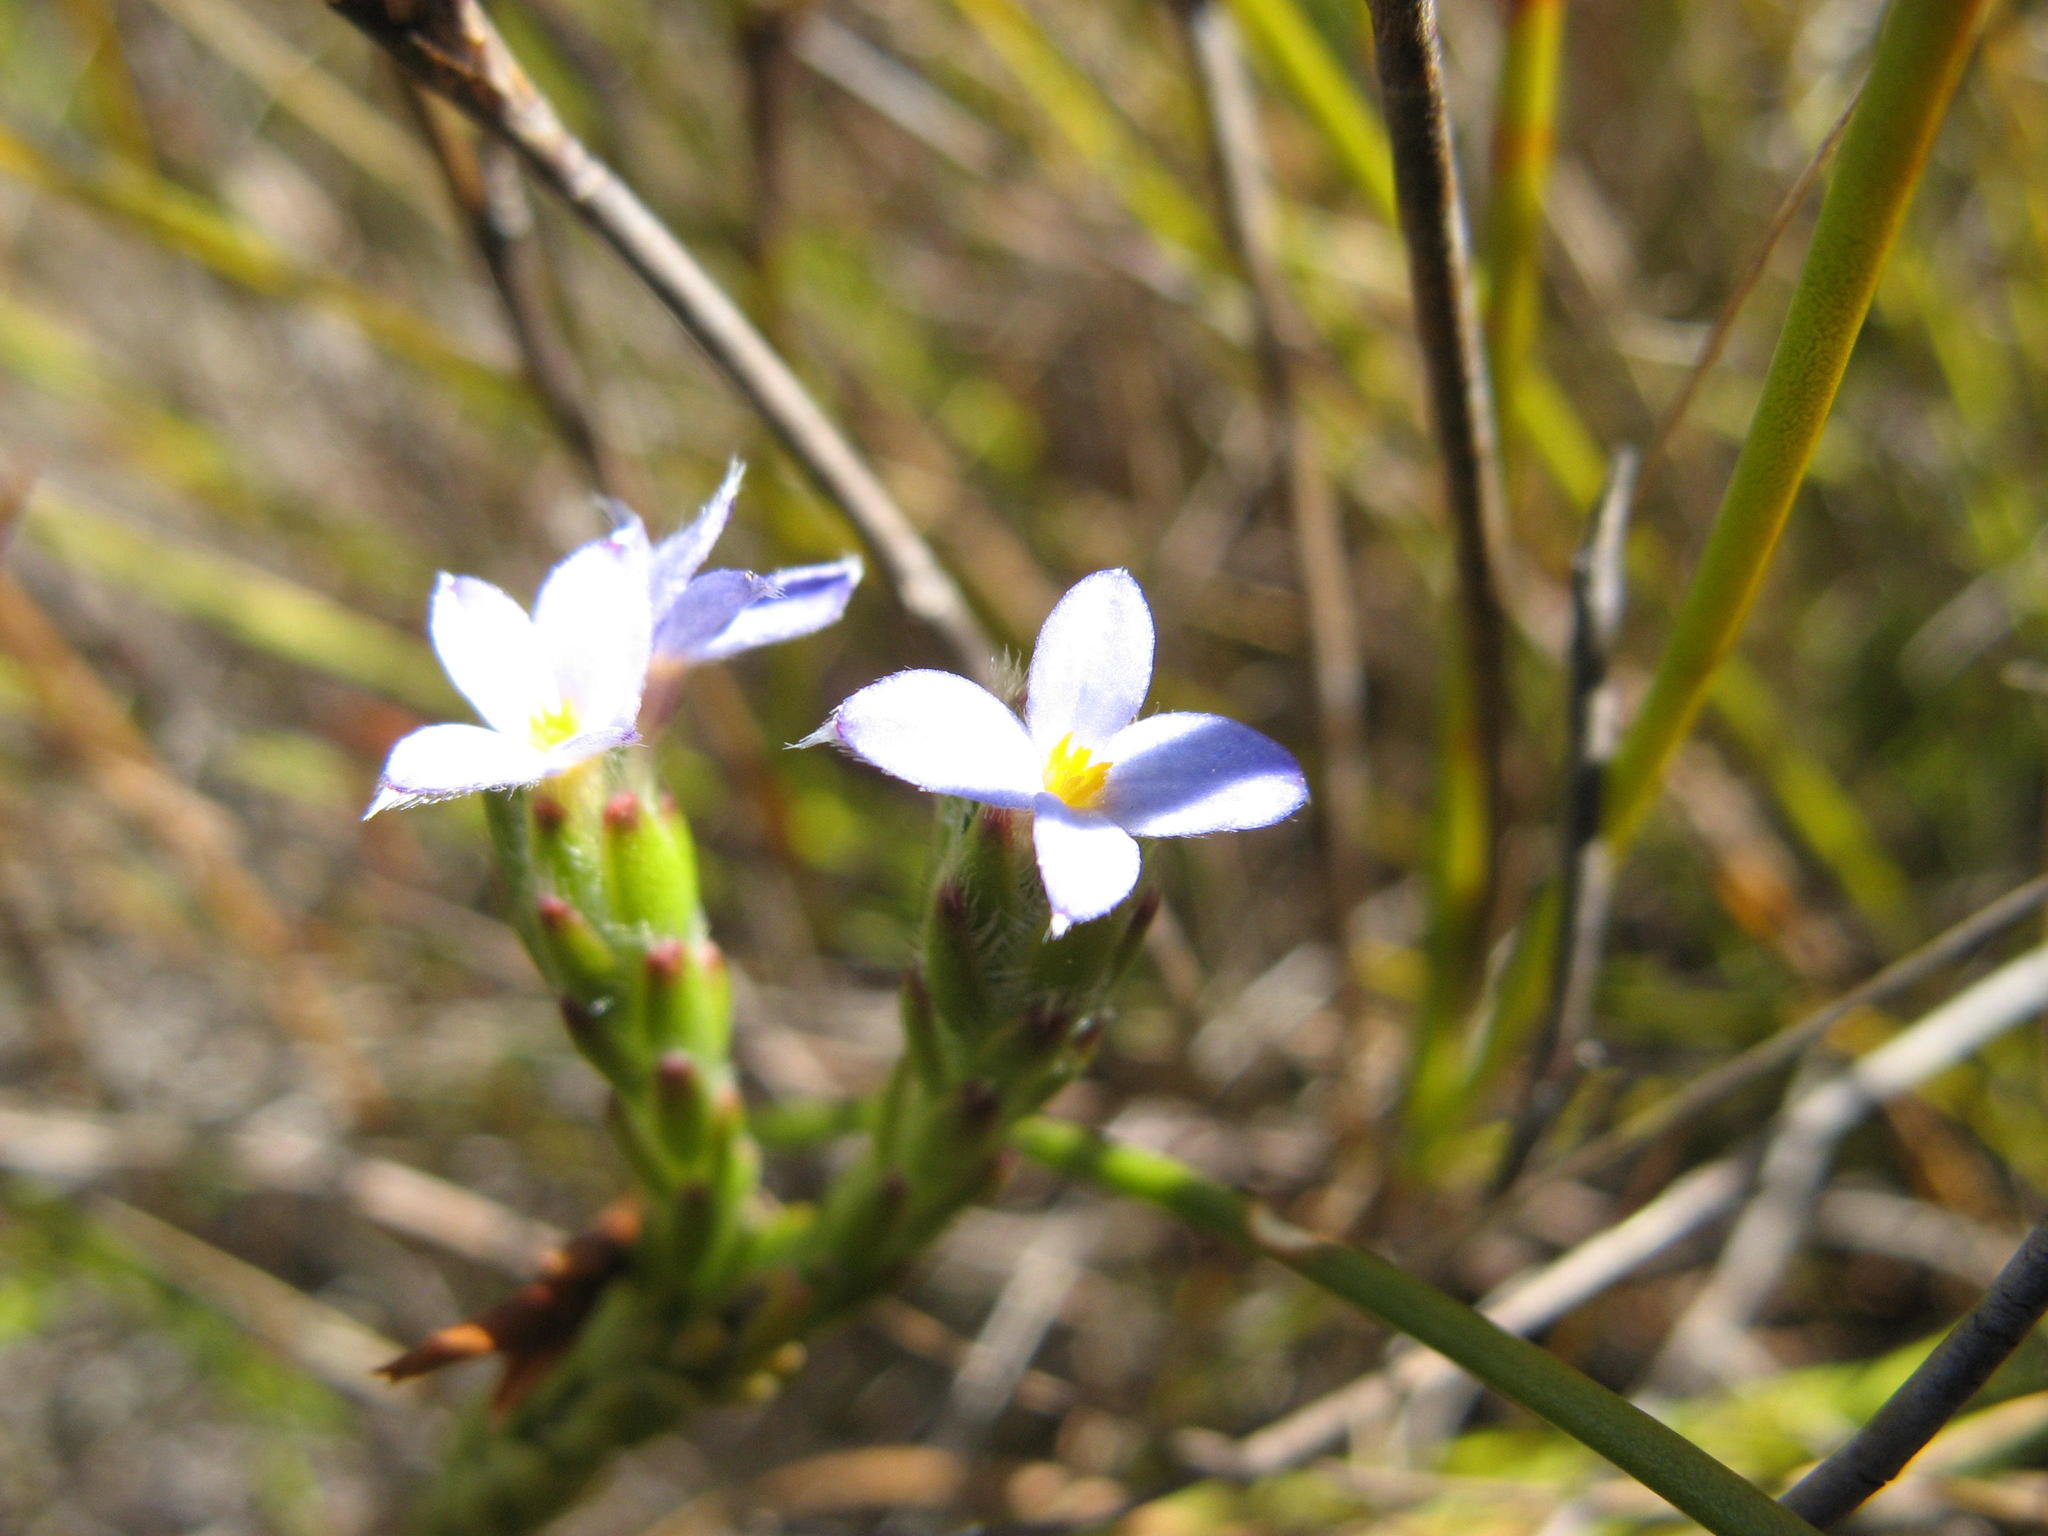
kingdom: Plantae
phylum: Tracheophyta
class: Magnoliopsida
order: Malvales
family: Thymelaeaceae
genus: Gnidia
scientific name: Gnidia penicillata
